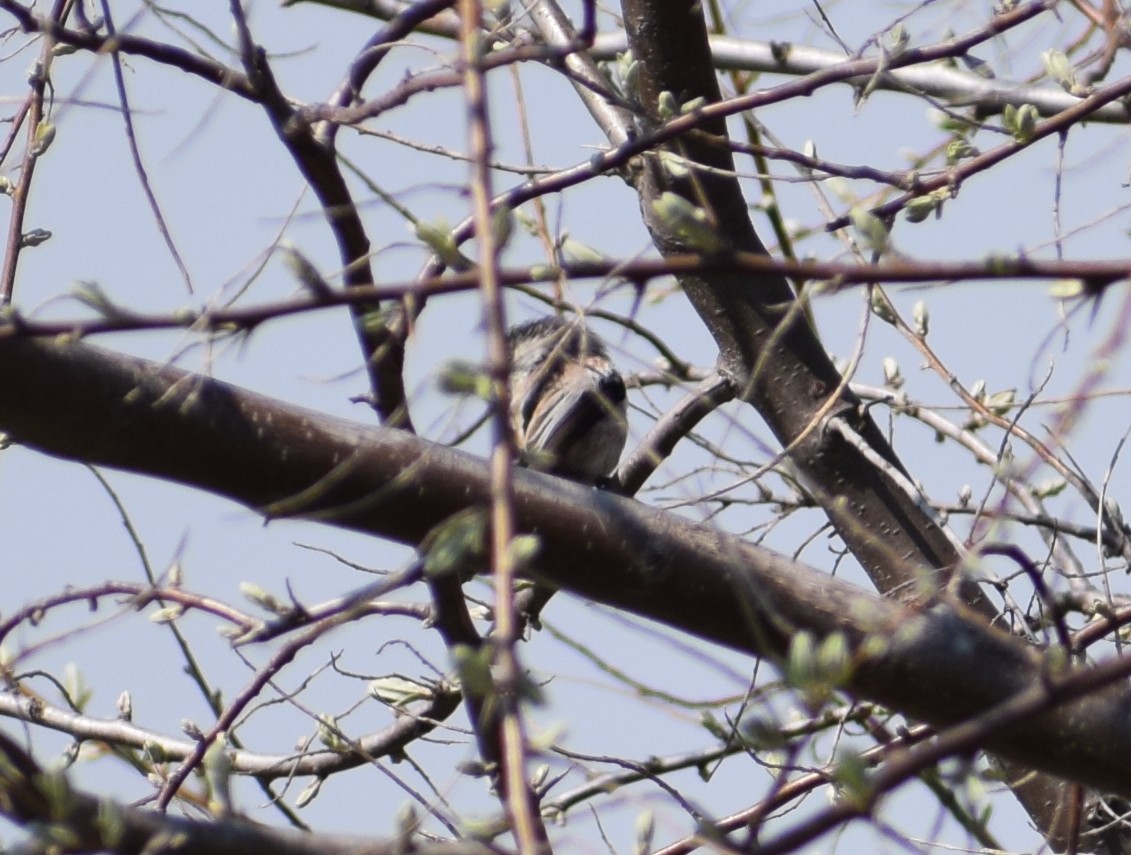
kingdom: Animalia
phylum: Chordata
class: Aves
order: Passeriformes
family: Aegithalidae
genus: Aegithalos
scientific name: Aegithalos caudatus
